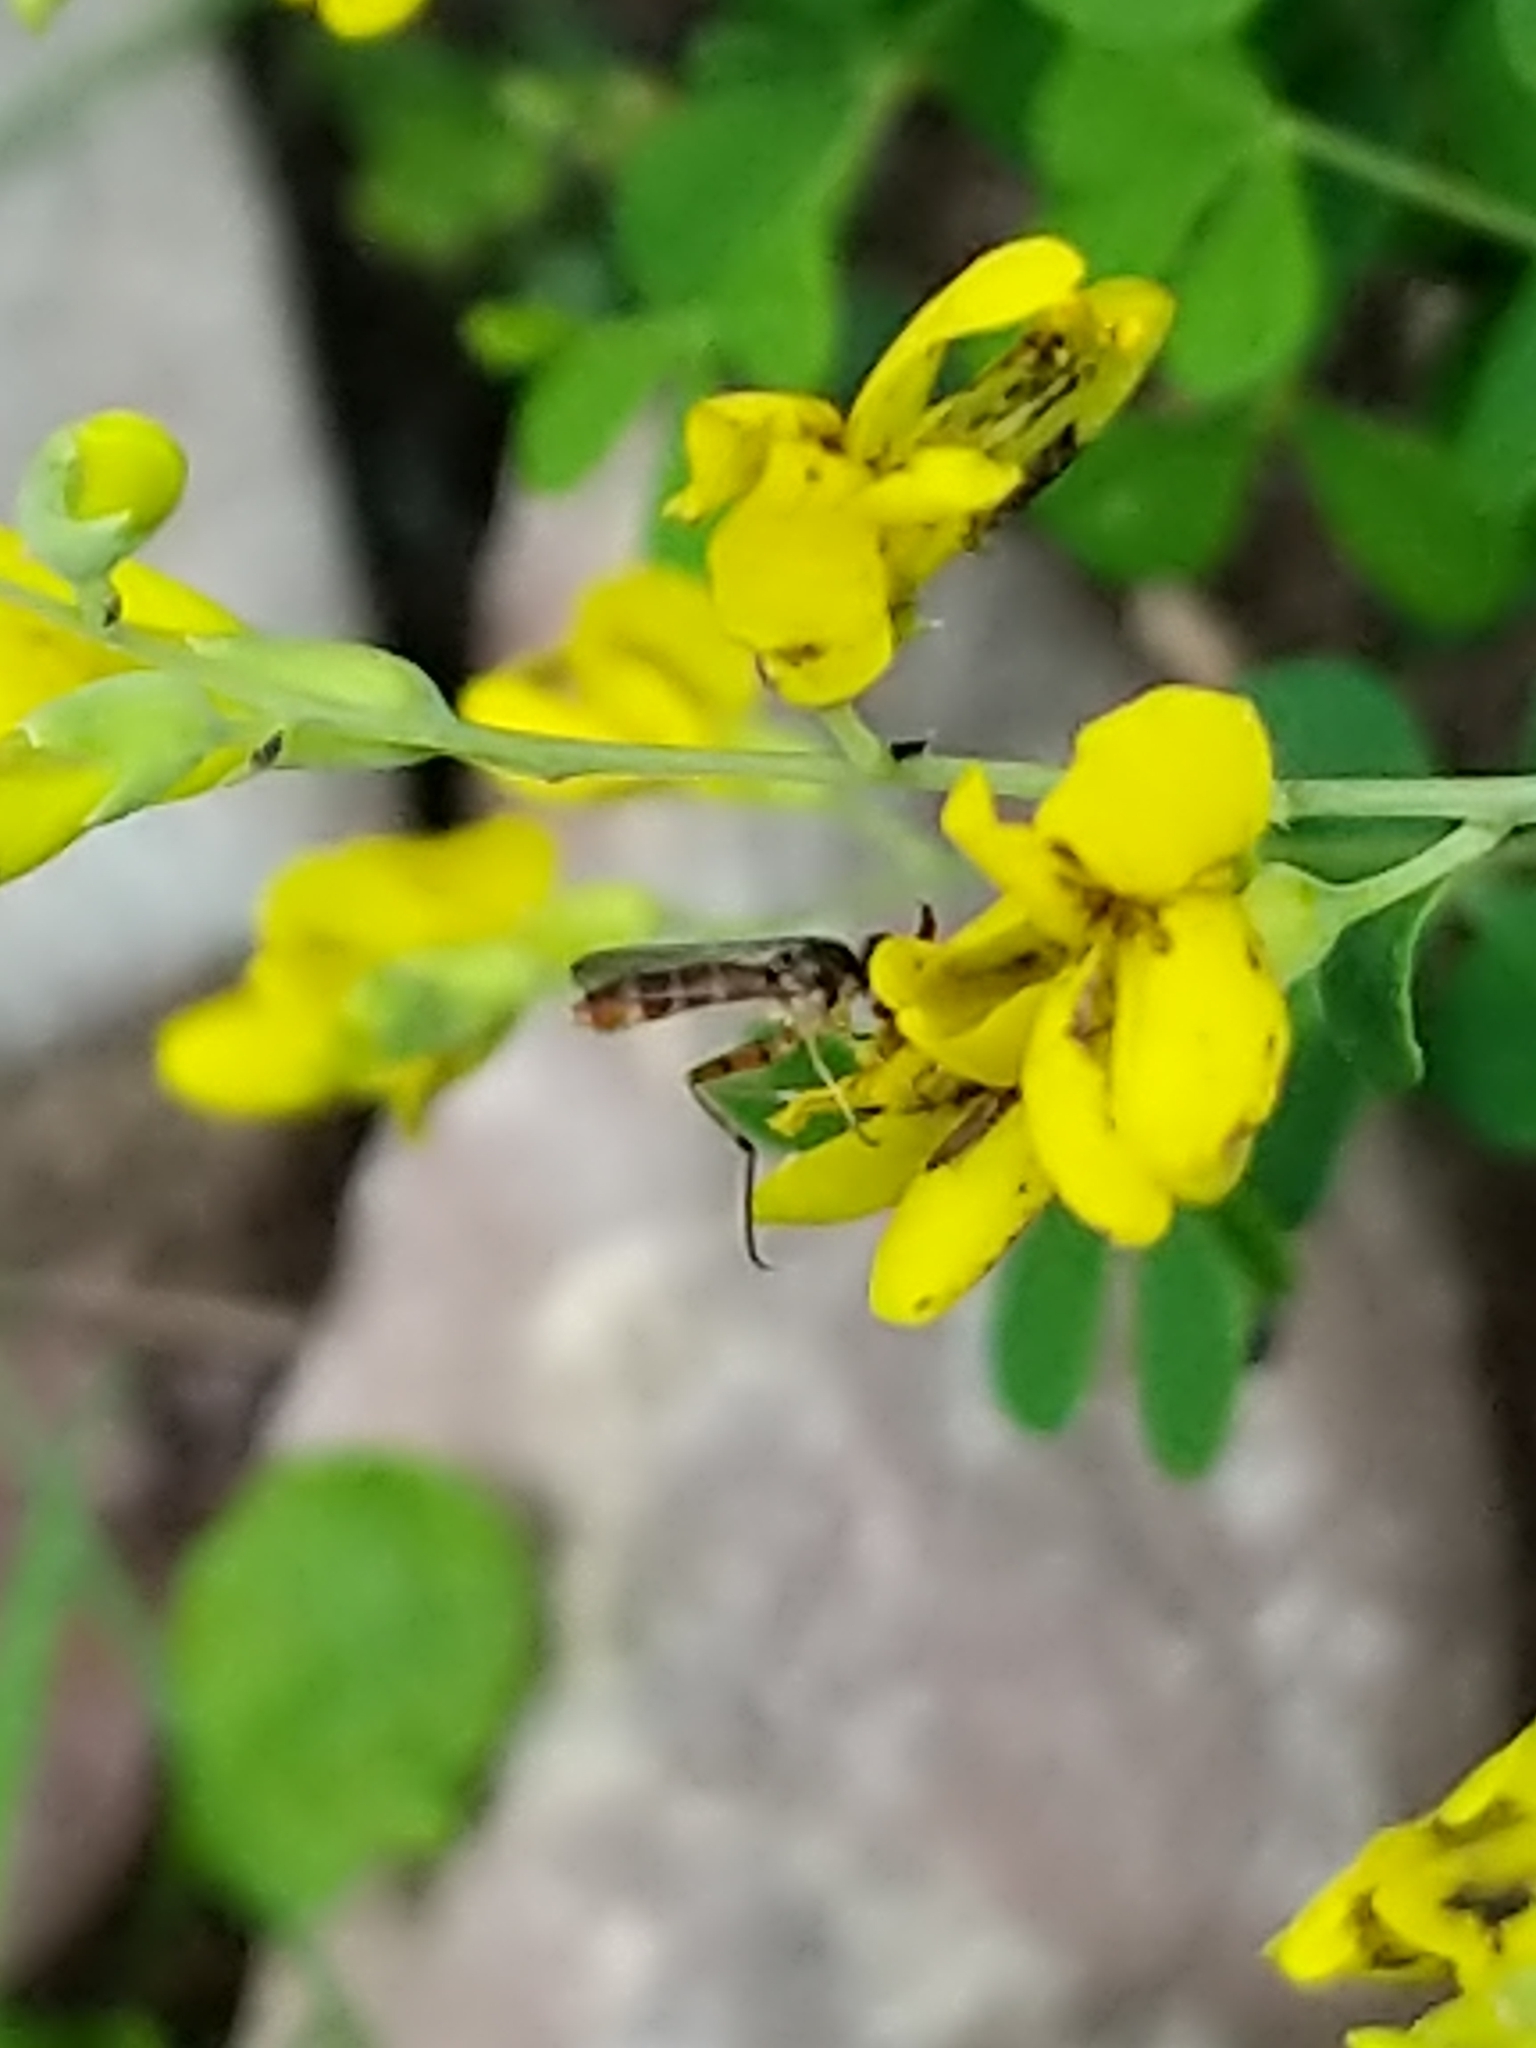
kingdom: Animalia
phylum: Arthropoda
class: Insecta
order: Diptera
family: Conopidae
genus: Stylogaster
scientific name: Stylogaster neglecta
